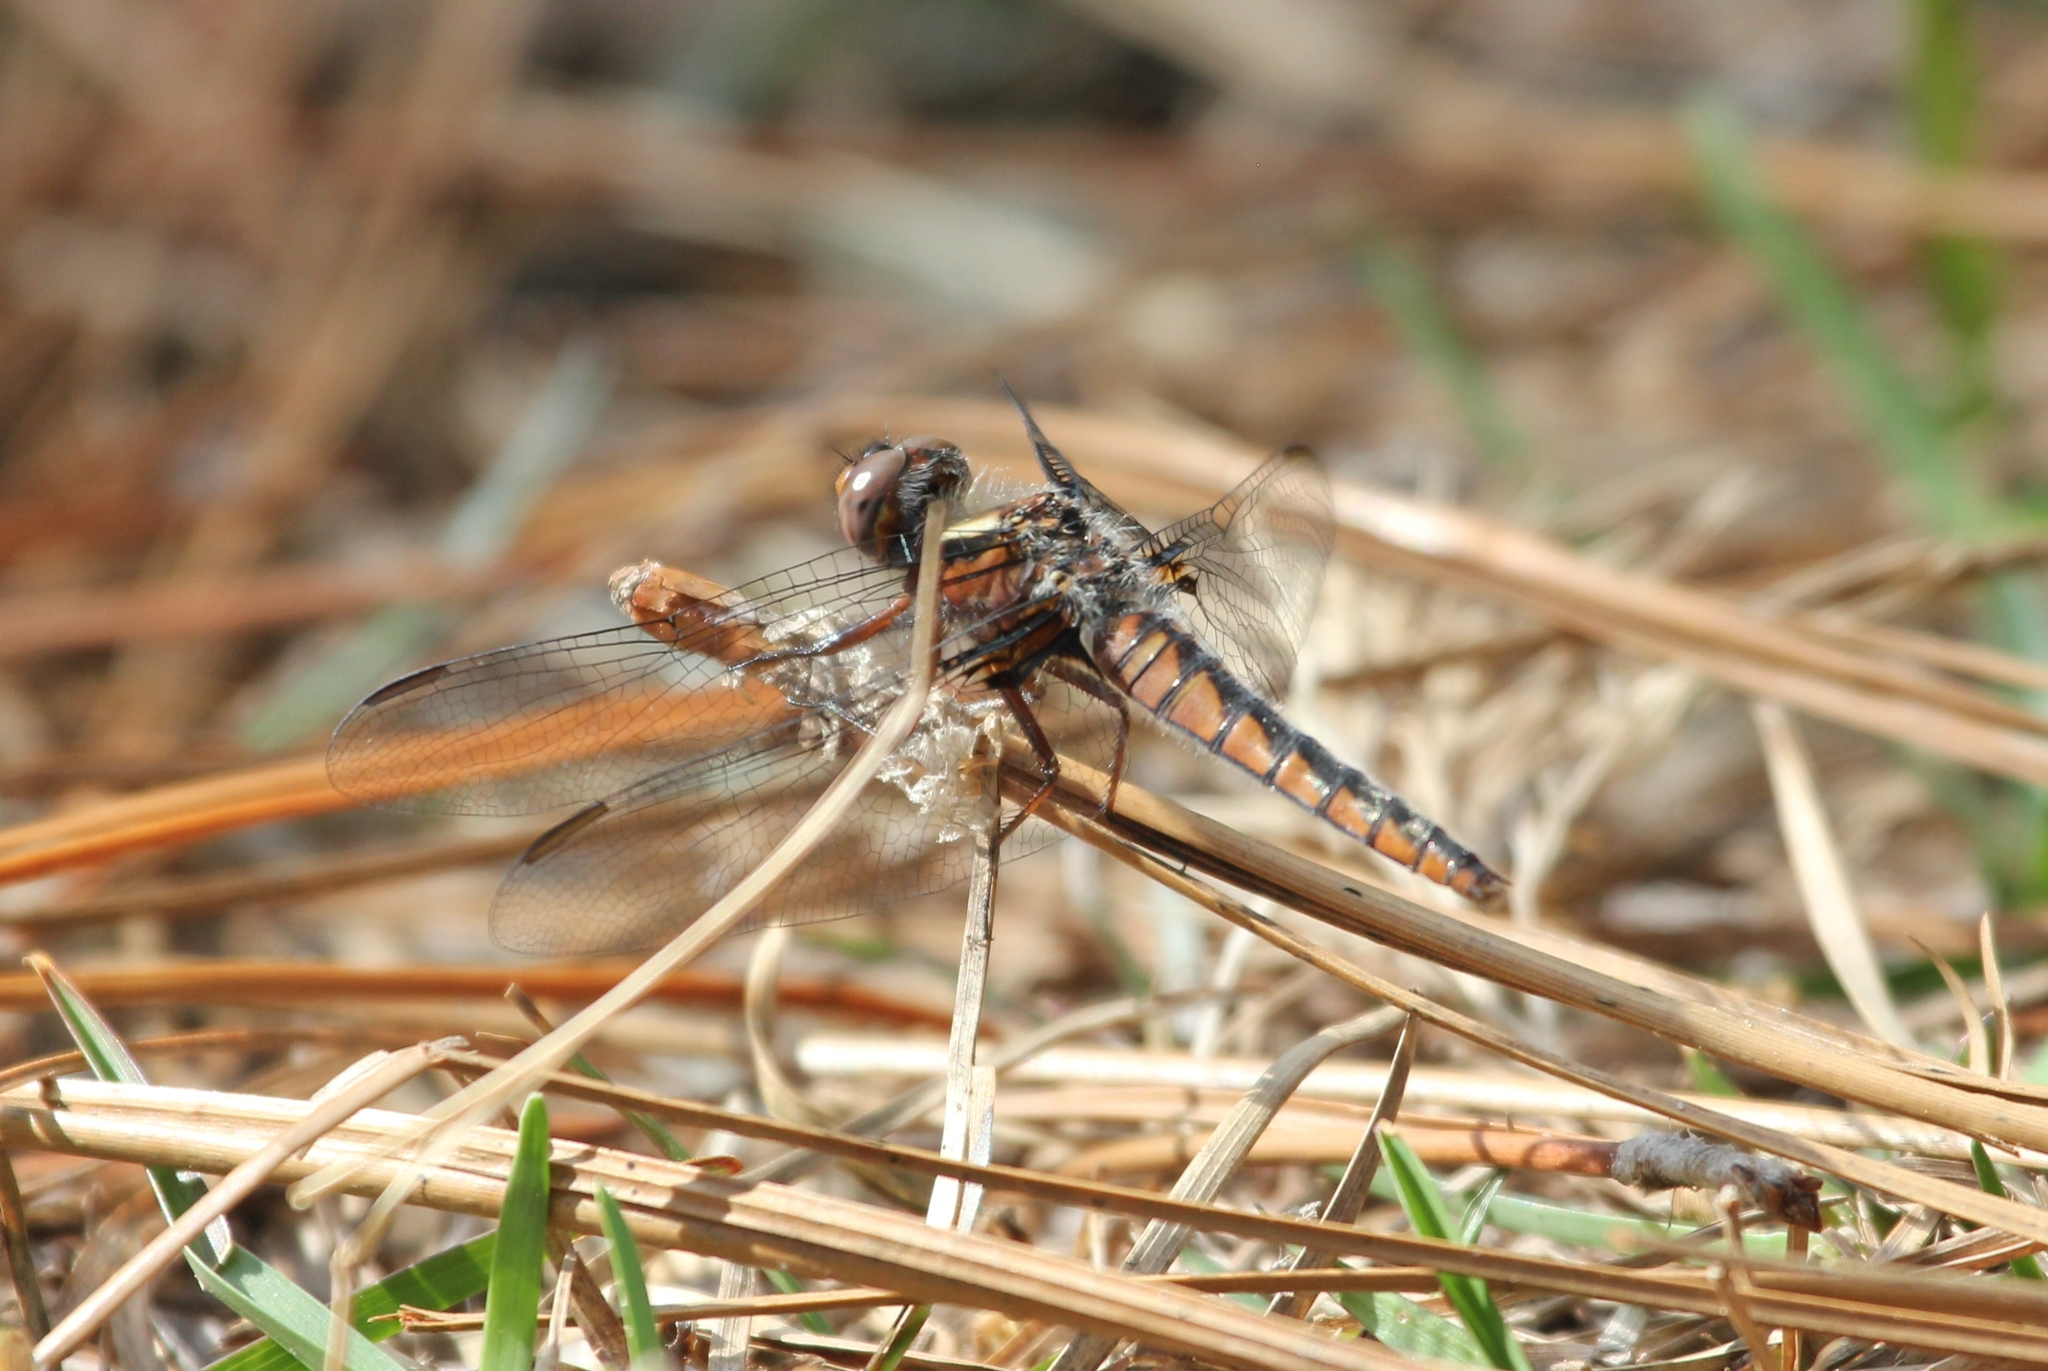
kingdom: Animalia
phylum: Arthropoda
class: Insecta
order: Odonata
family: Libellulidae
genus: Ladona
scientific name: Ladona deplanata
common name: Blue corporal
